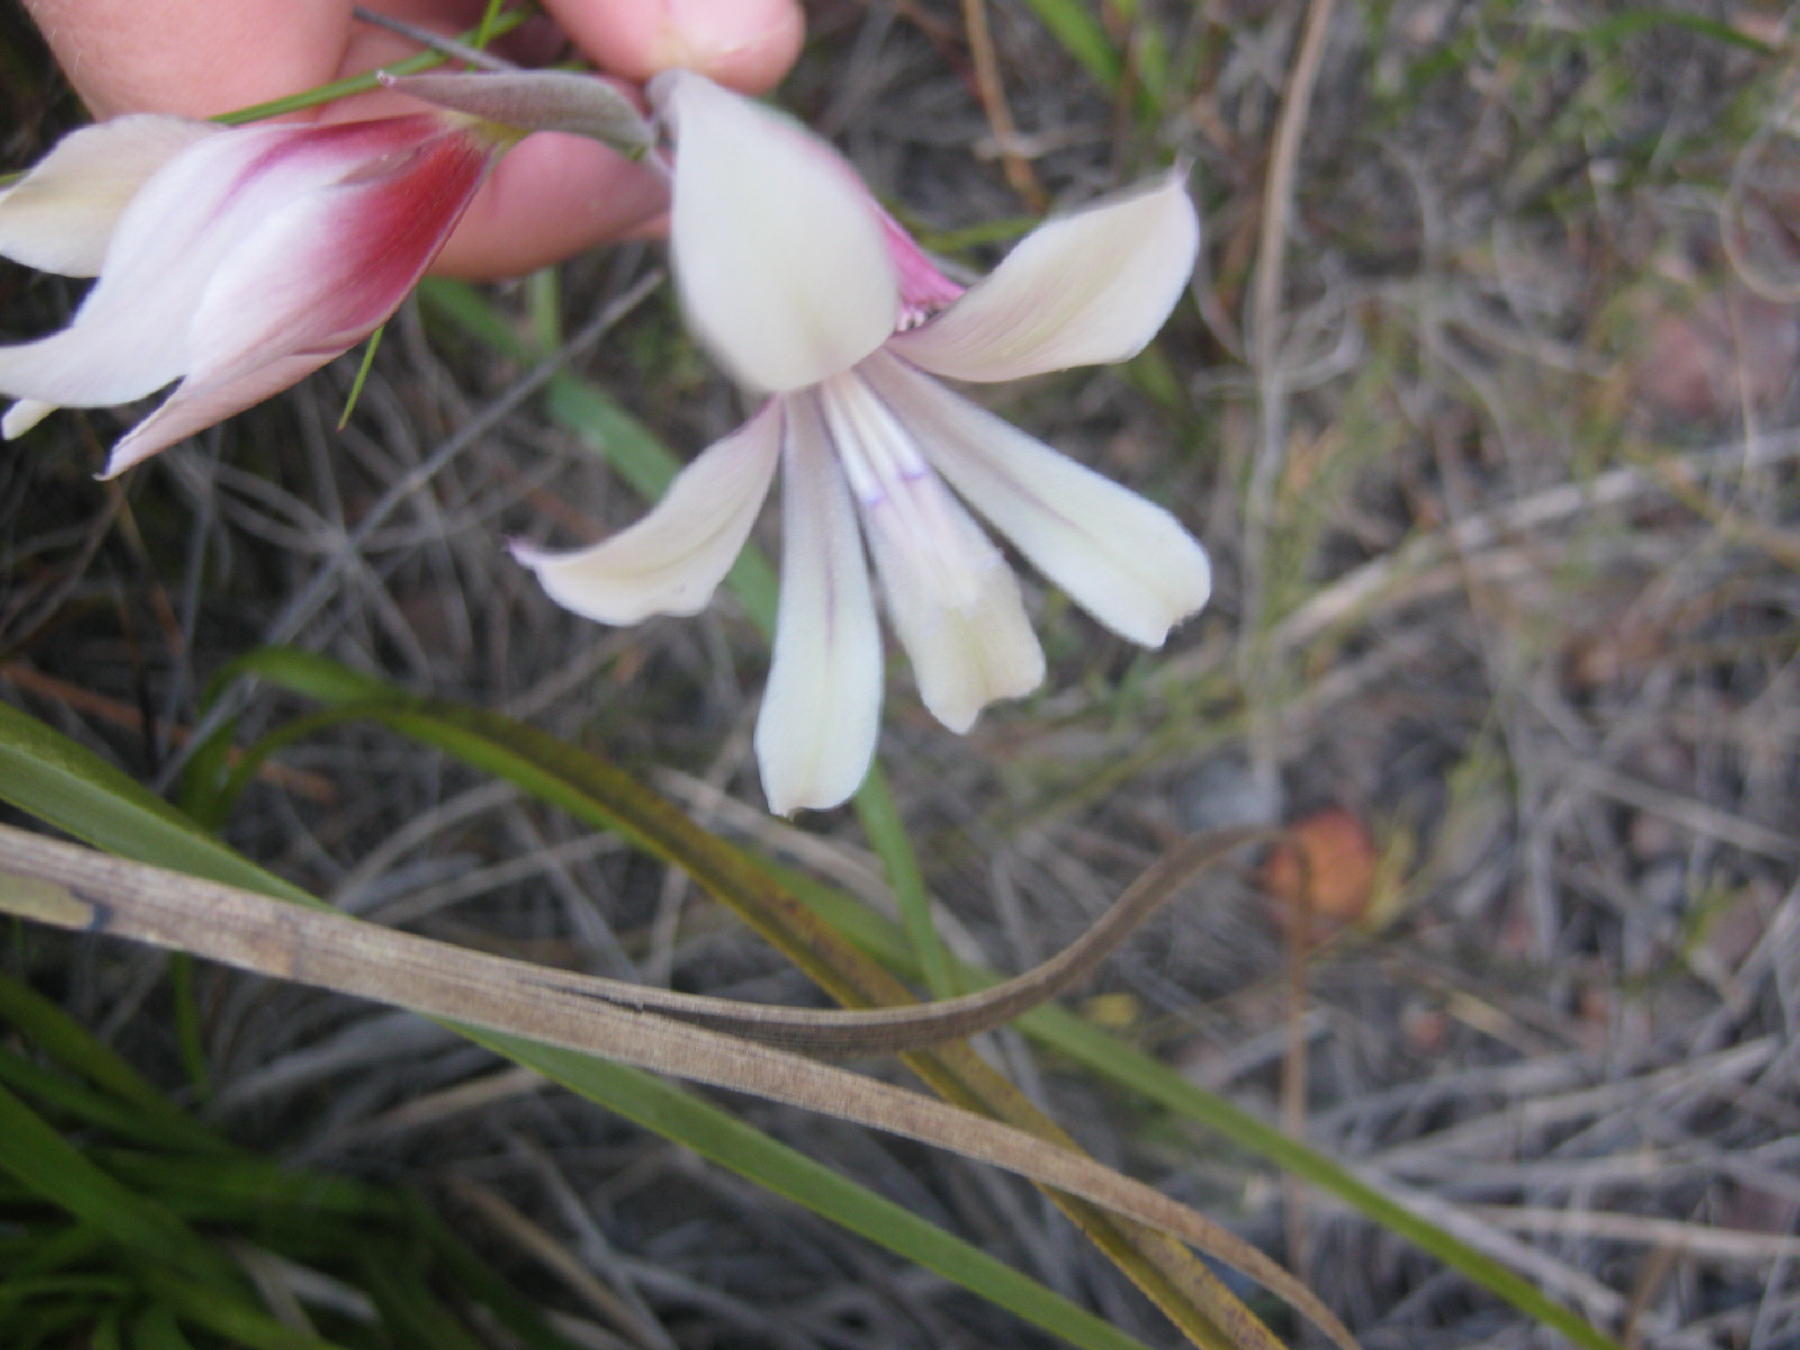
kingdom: Plantae
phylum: Tracheophyta
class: Liliopsida
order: Asparagales
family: Iridaceae
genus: Gladiolus
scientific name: Gladiolus grandiflorus
